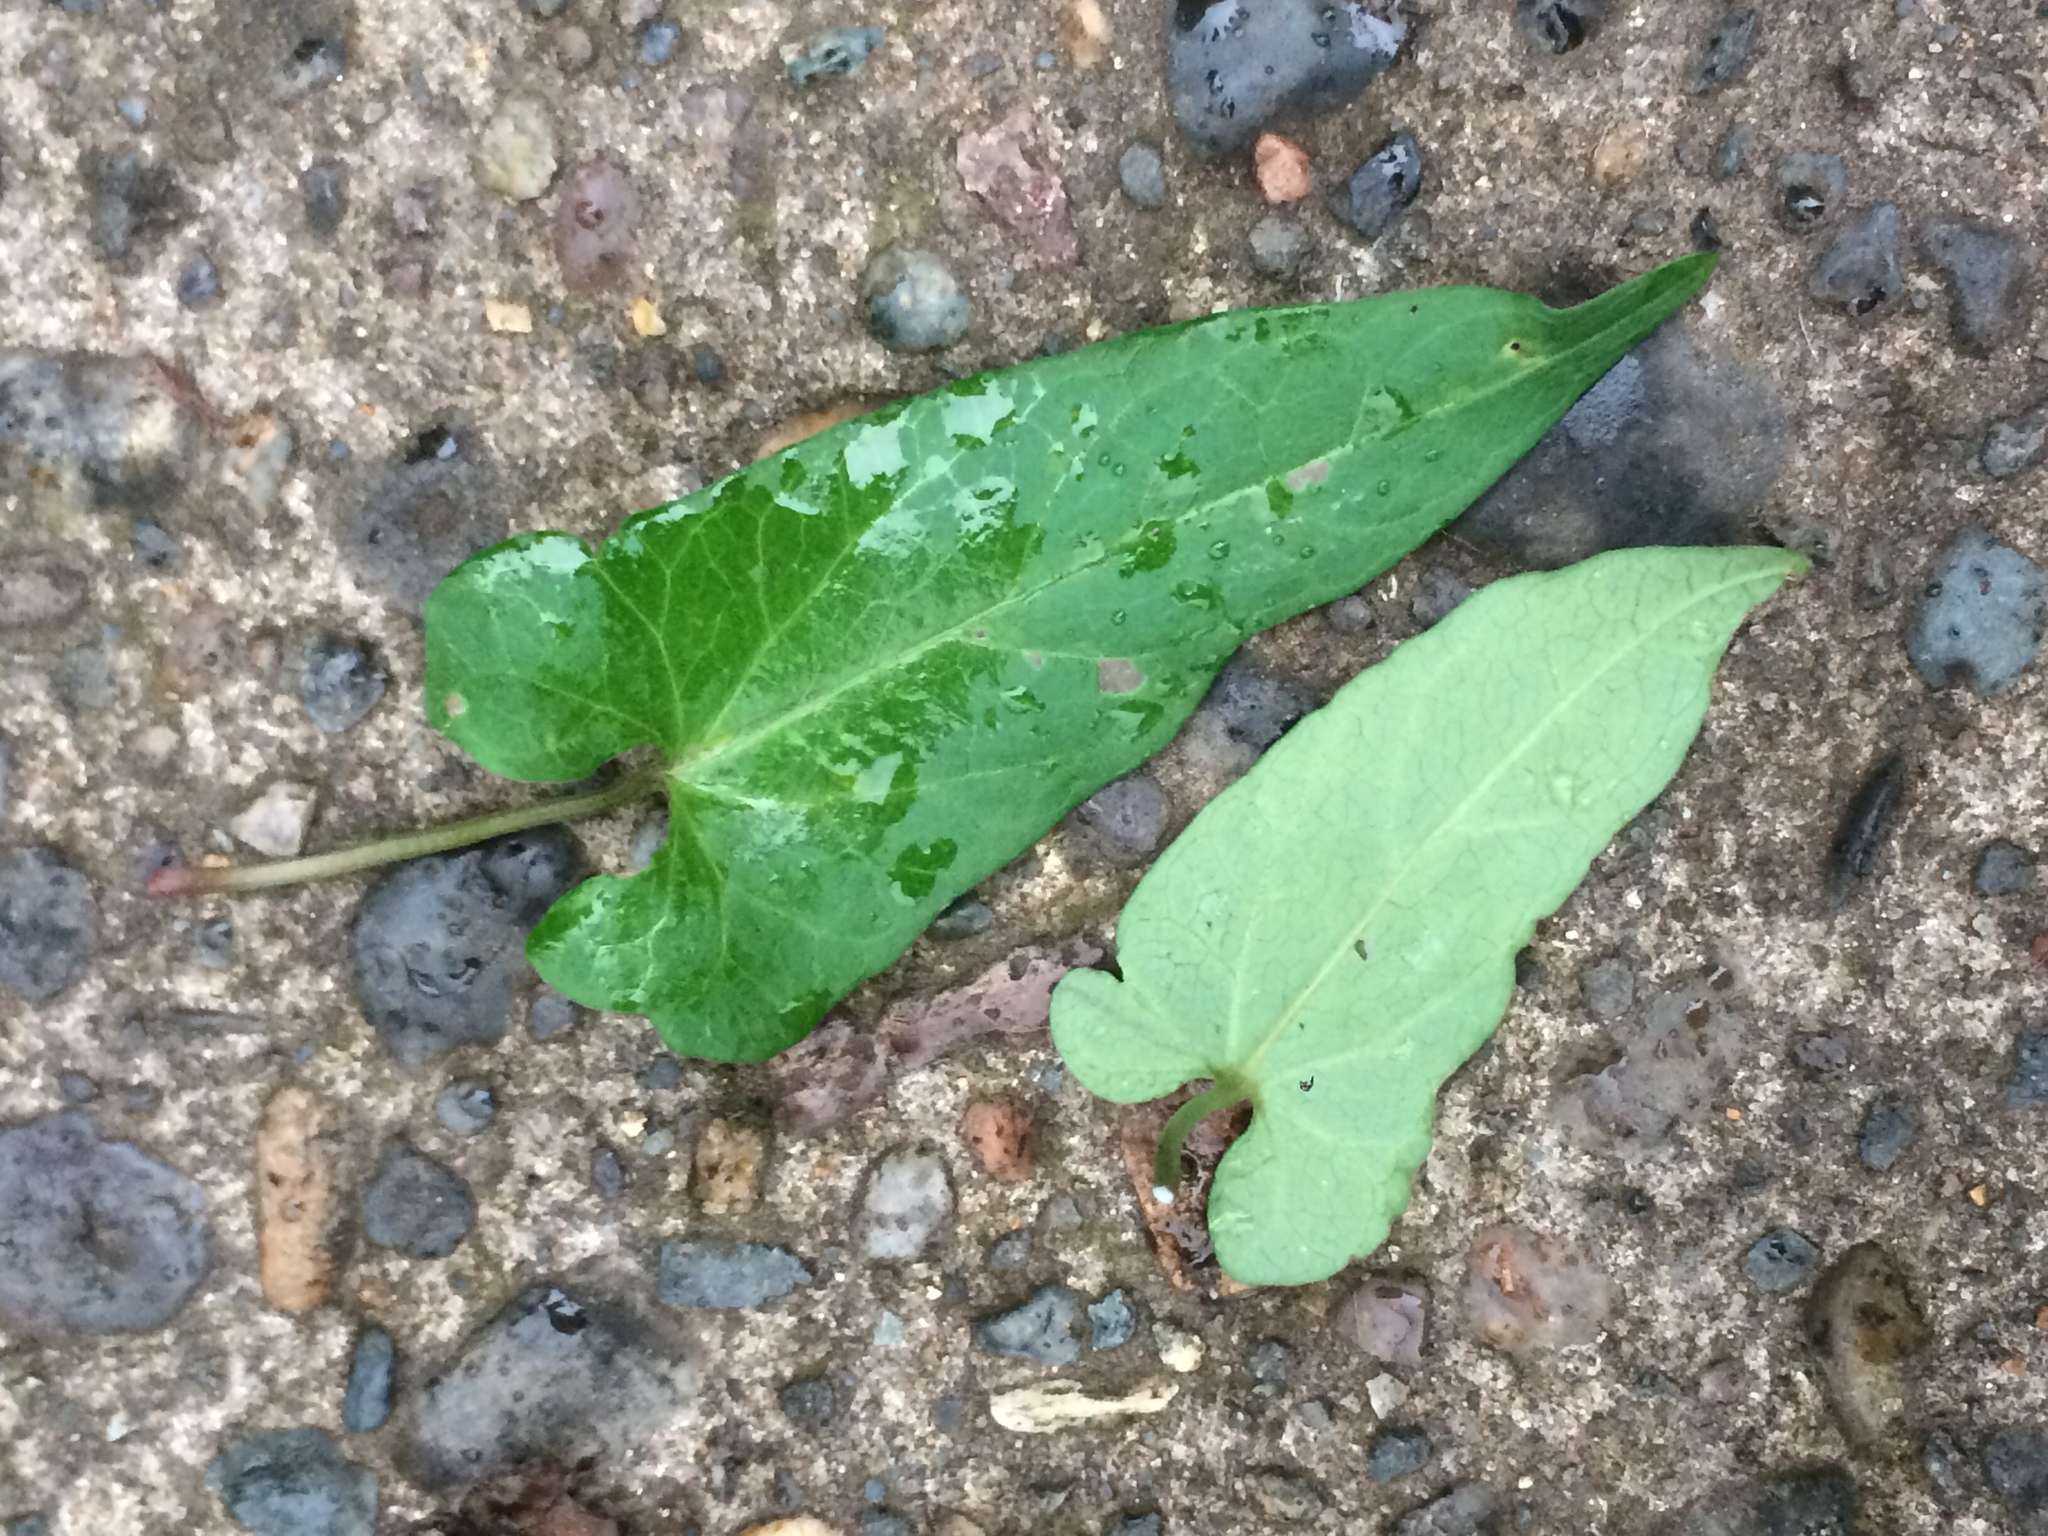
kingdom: Plantae
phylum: Tracheophyta
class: Magnoliopsida
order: Solanales
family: Convolvulaceae
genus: Convolvulus
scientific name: Convolvulus arvensis
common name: Field bindweed
